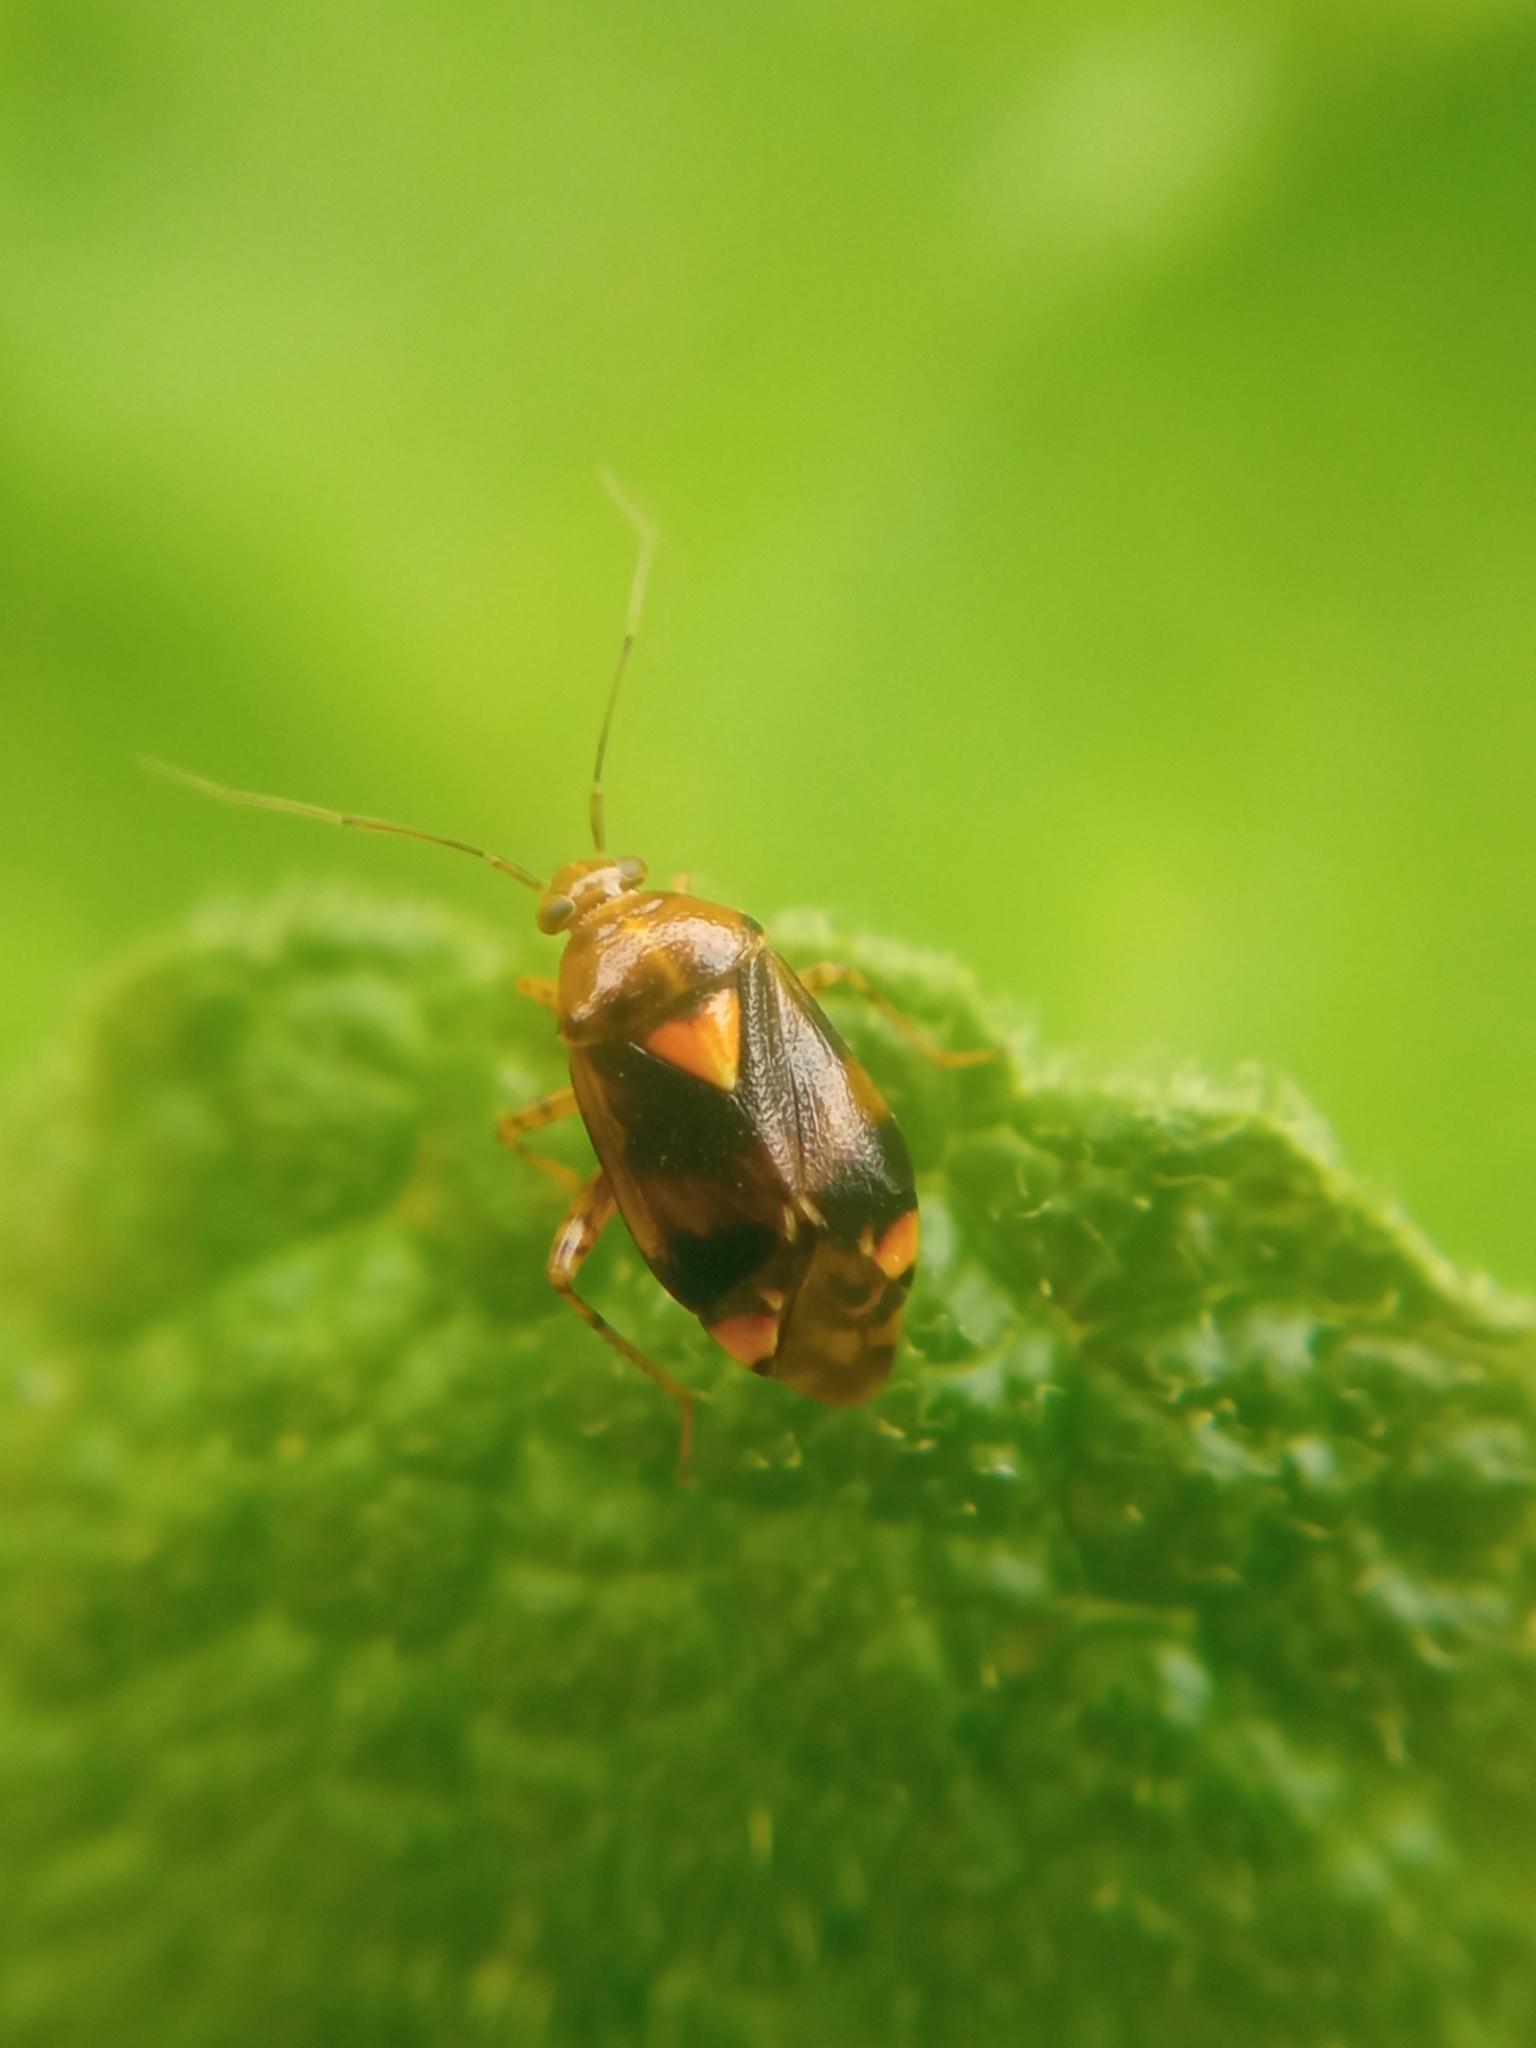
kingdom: Animalia
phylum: Arthropoda
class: Insecta
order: Hemiptera
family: Miridae
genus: Liocoris
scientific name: Liocoris tripustulatus
